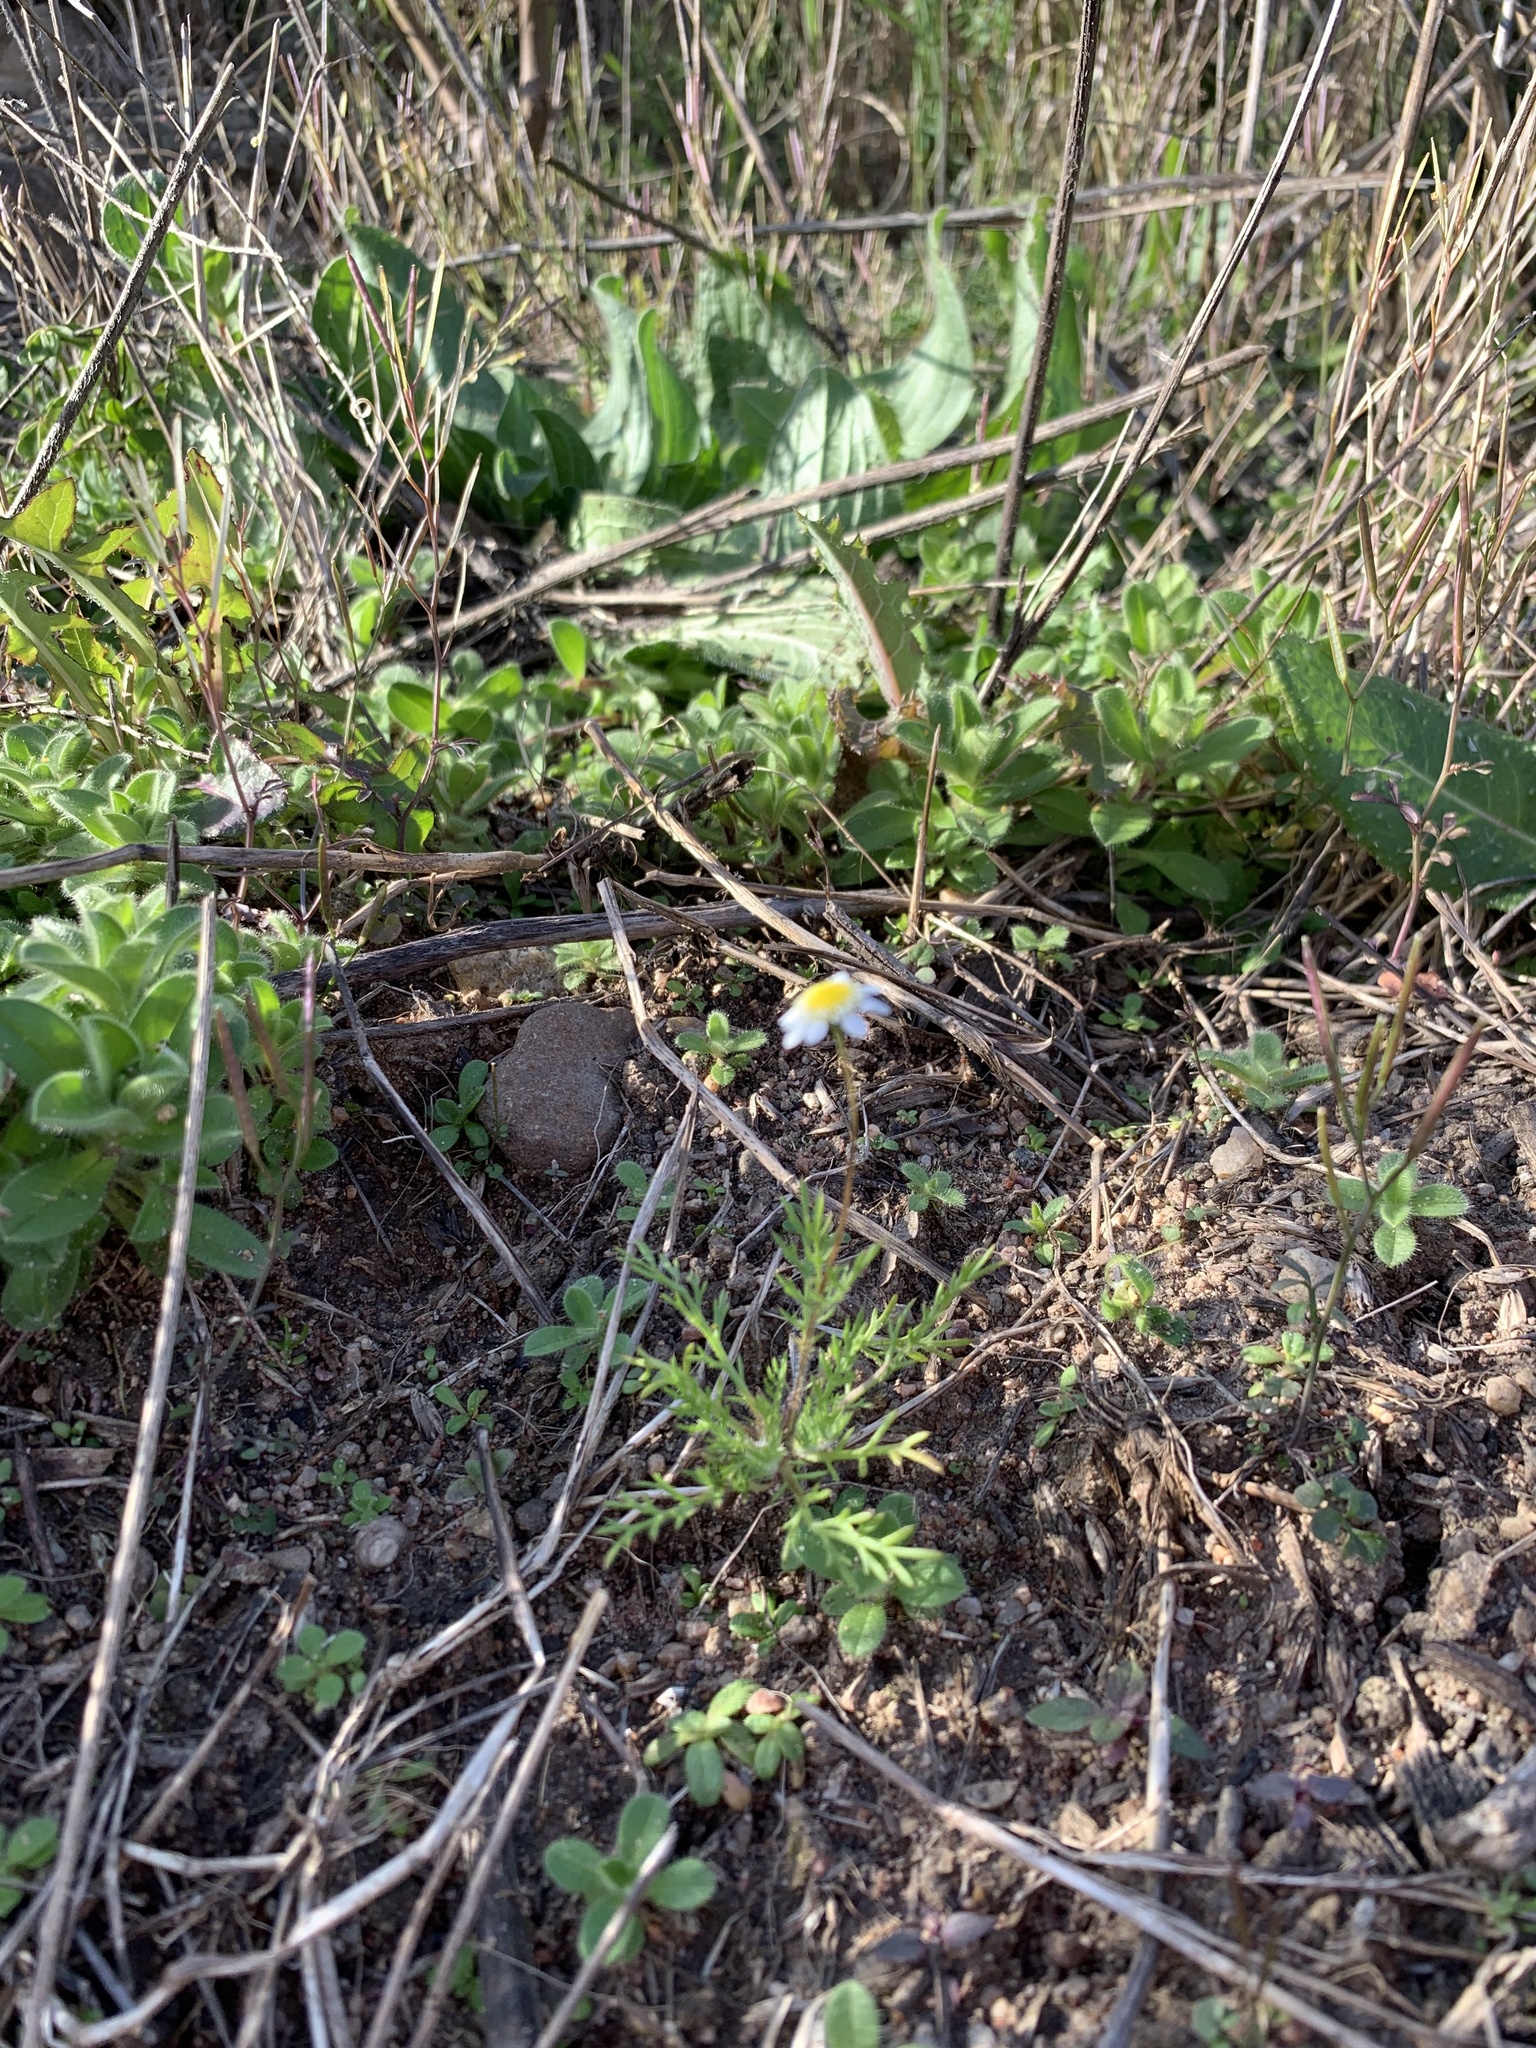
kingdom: Plantae
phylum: Tracheophyta
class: Magnoliopsida
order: Asterales
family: Asteraceae
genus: Cotula
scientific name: Cotula turbinata
